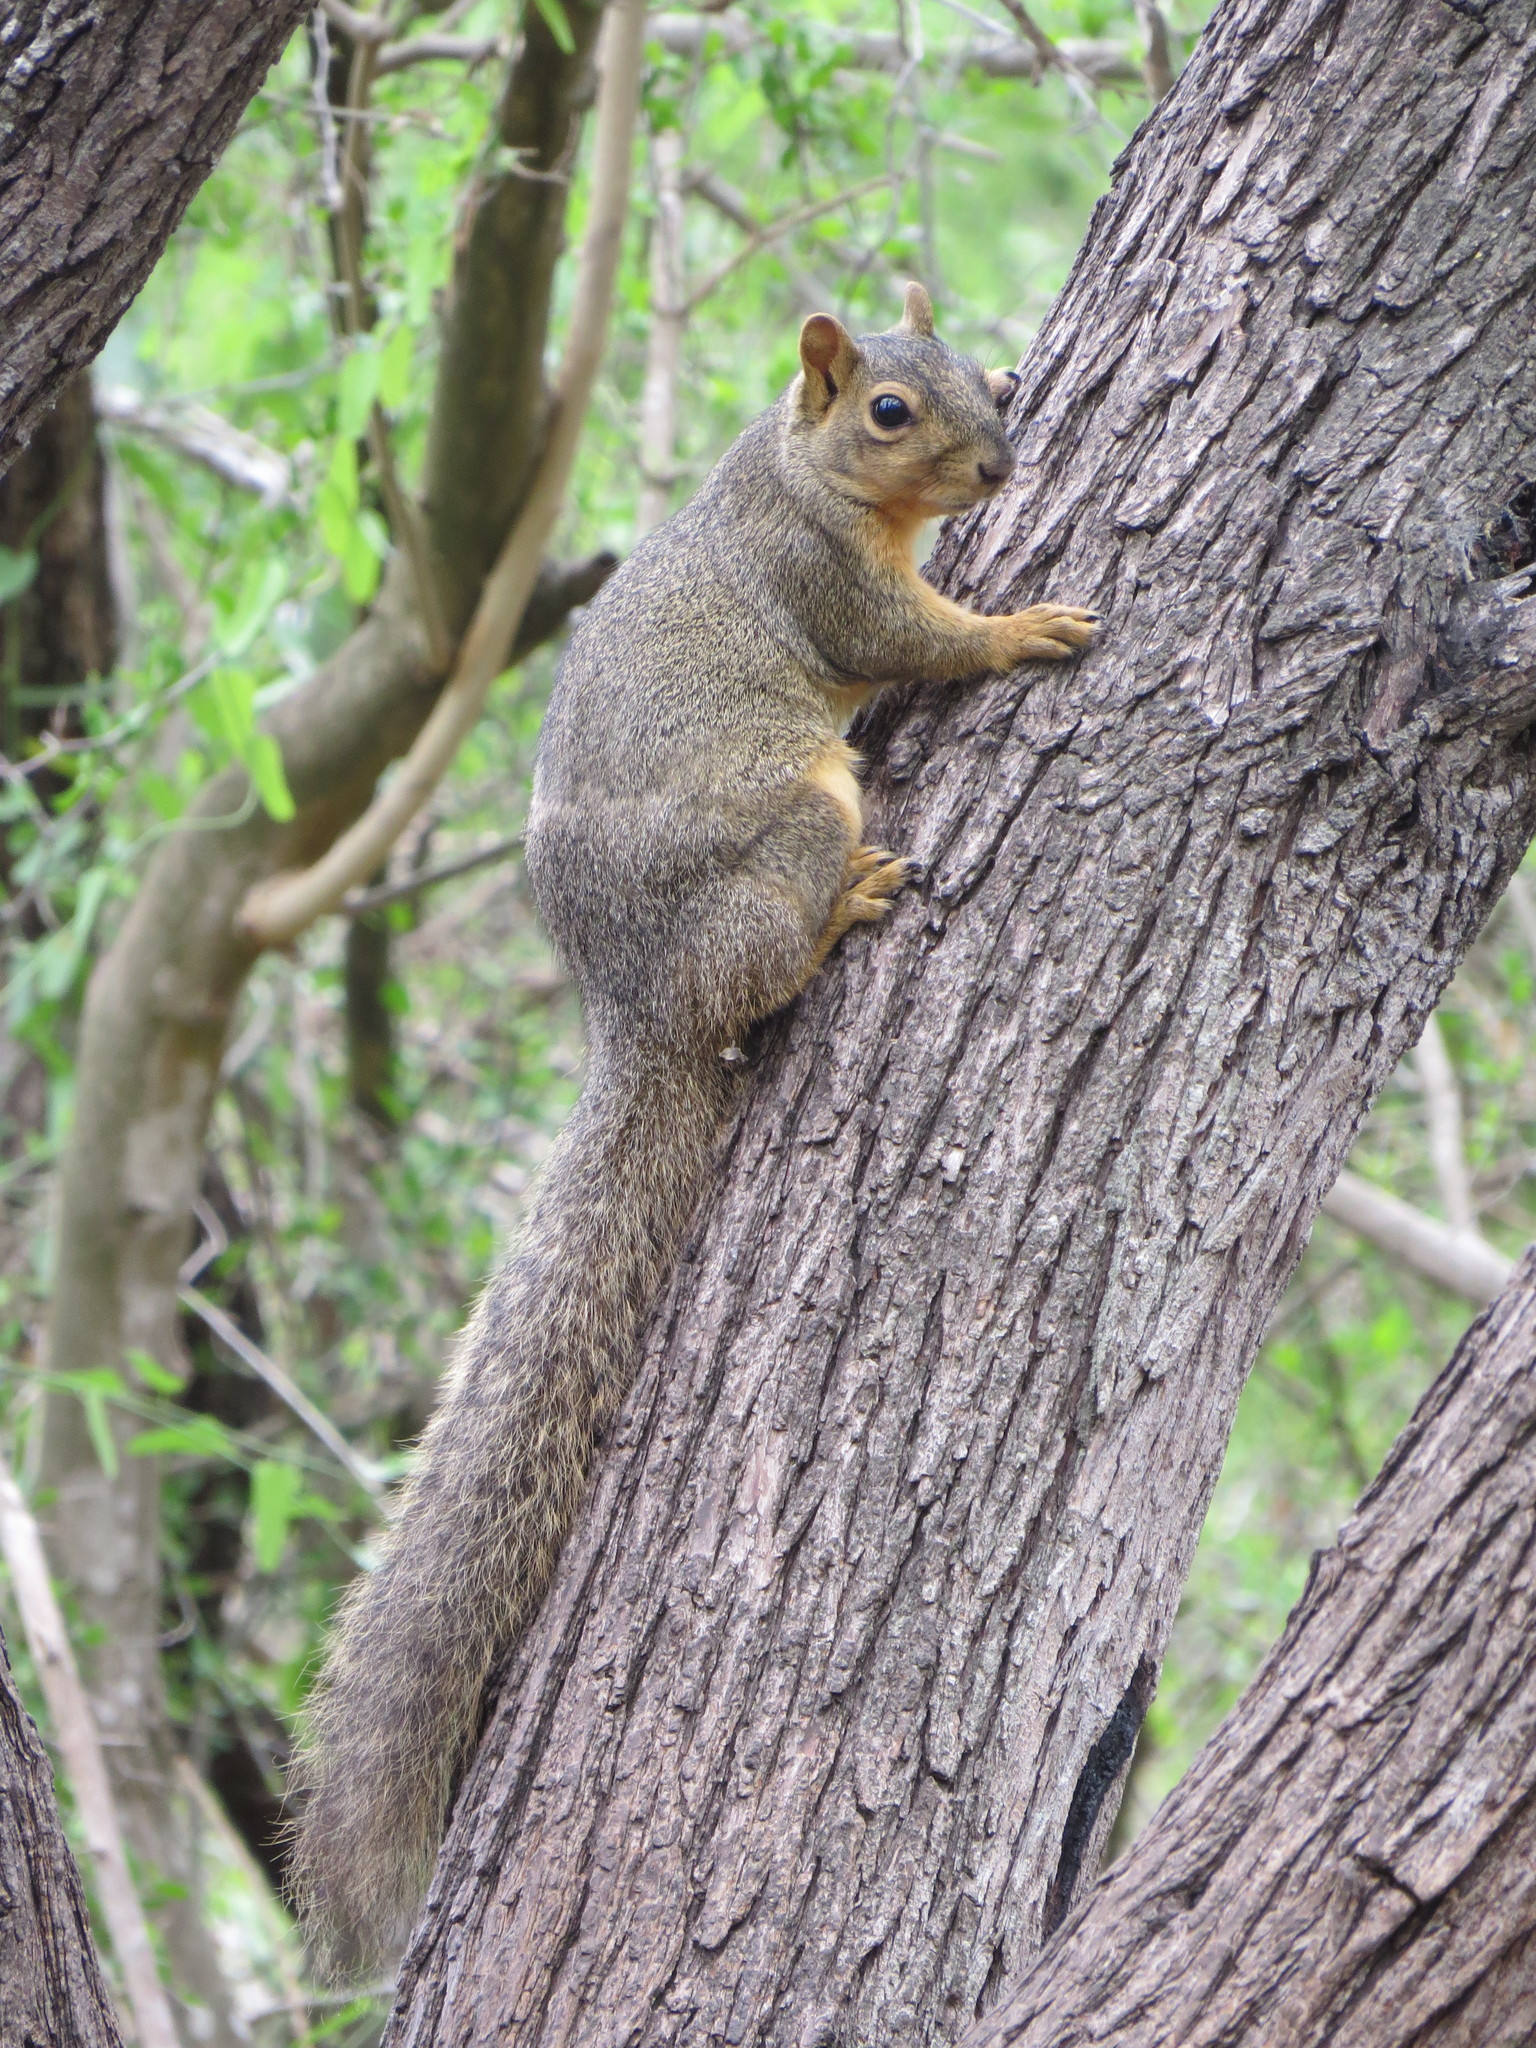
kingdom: Animalia
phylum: Chordata
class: Mammalia
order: Rodentia
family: Sciuridae
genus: Sciurus
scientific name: Sciurus niger
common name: Fox squirrel
